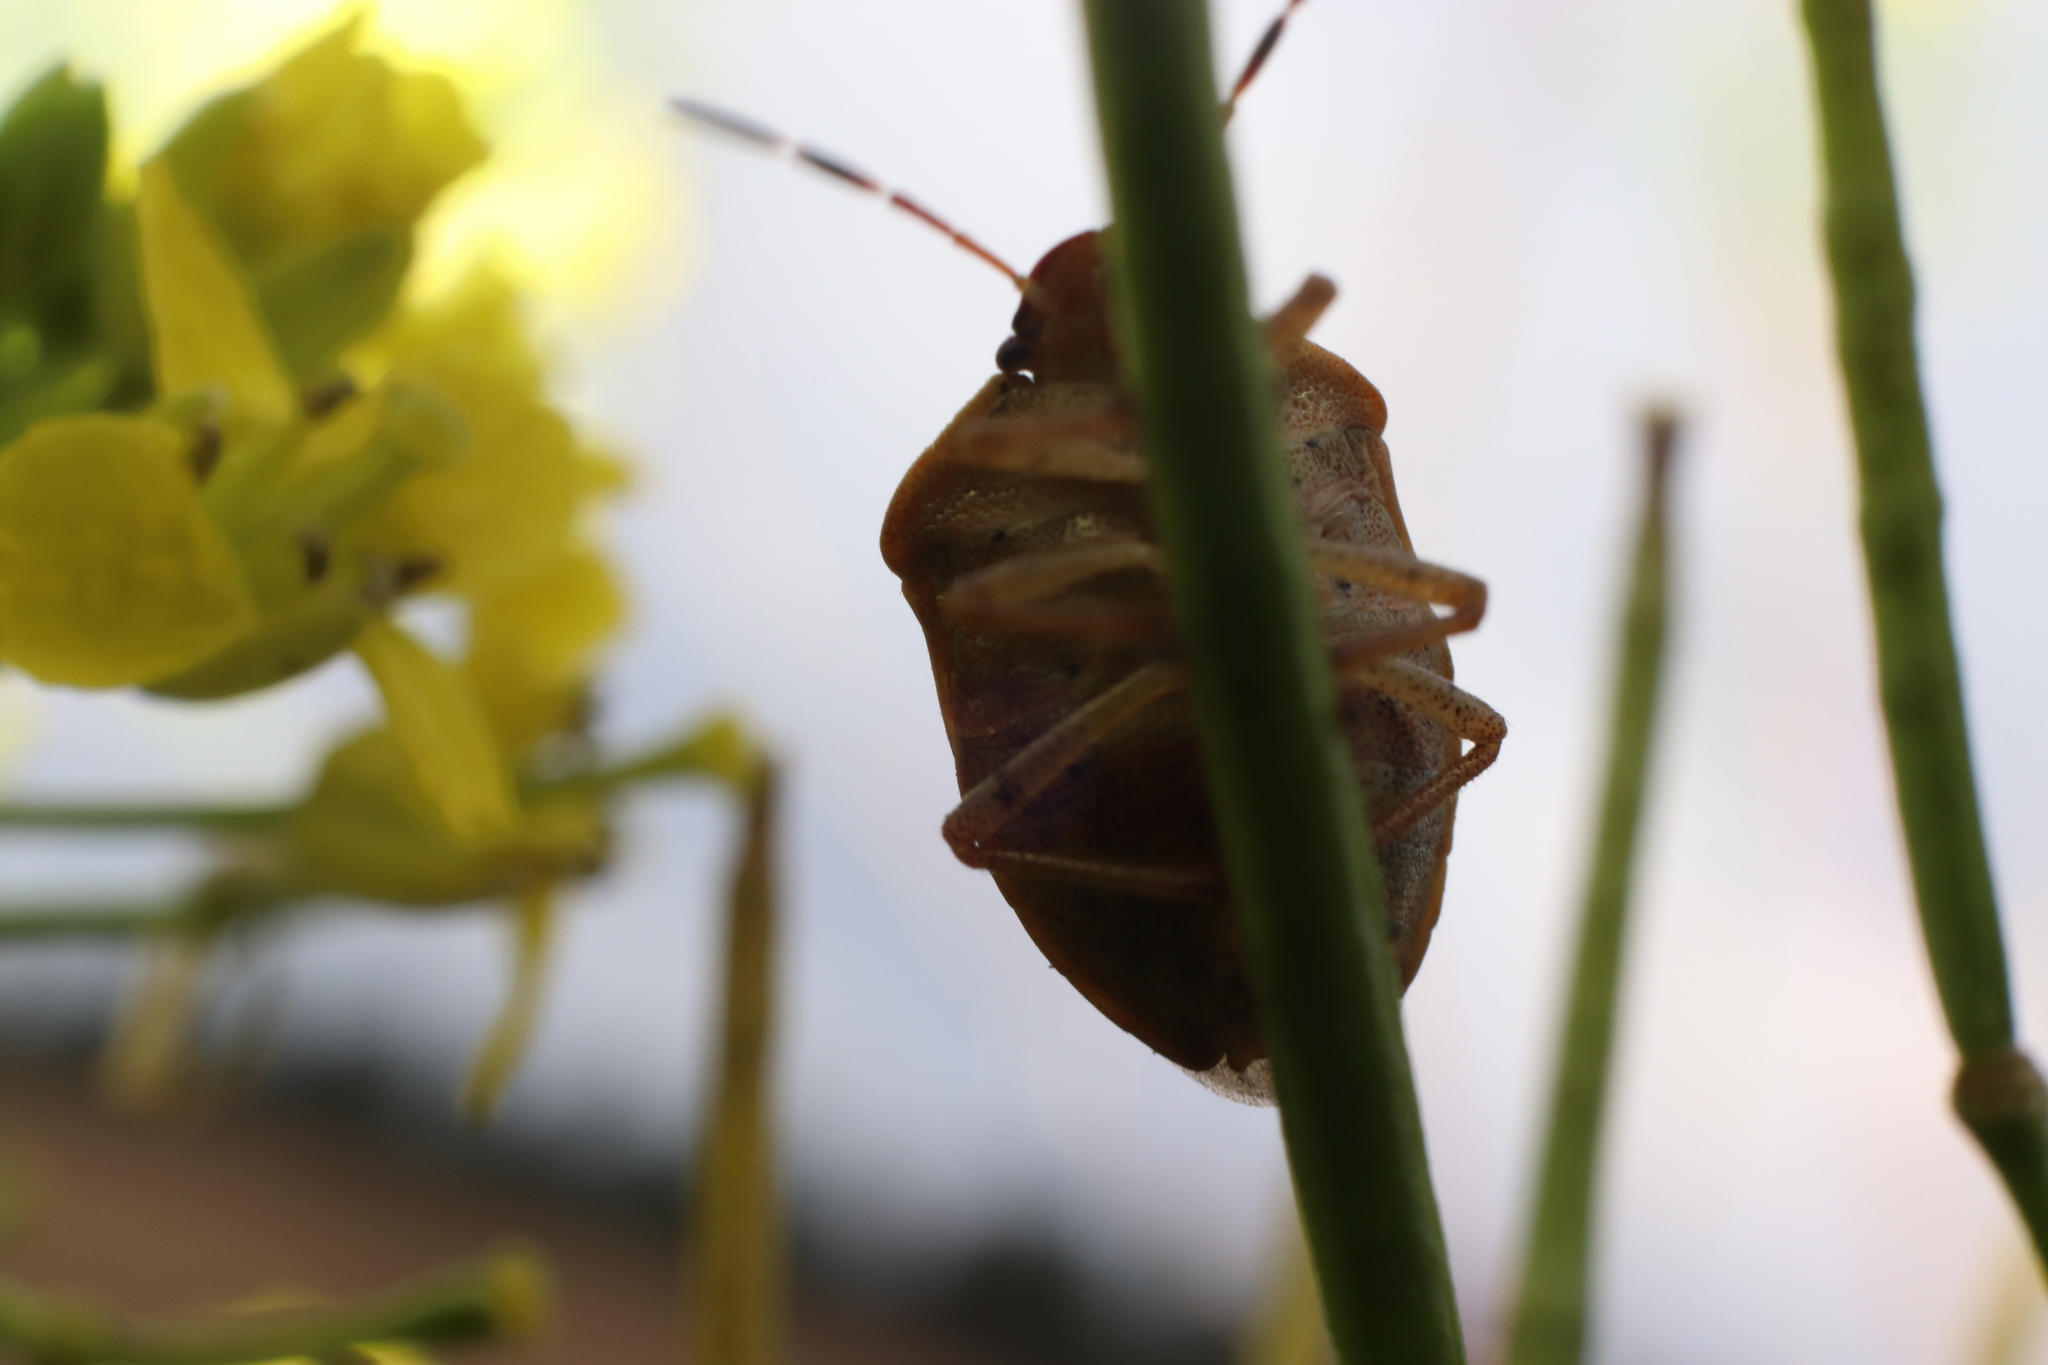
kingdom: Animalia
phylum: Arthropoda
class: Insecta
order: Hemiptera
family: Pentatomidae
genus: Holcostethus
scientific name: Holcostethus limbolarius
